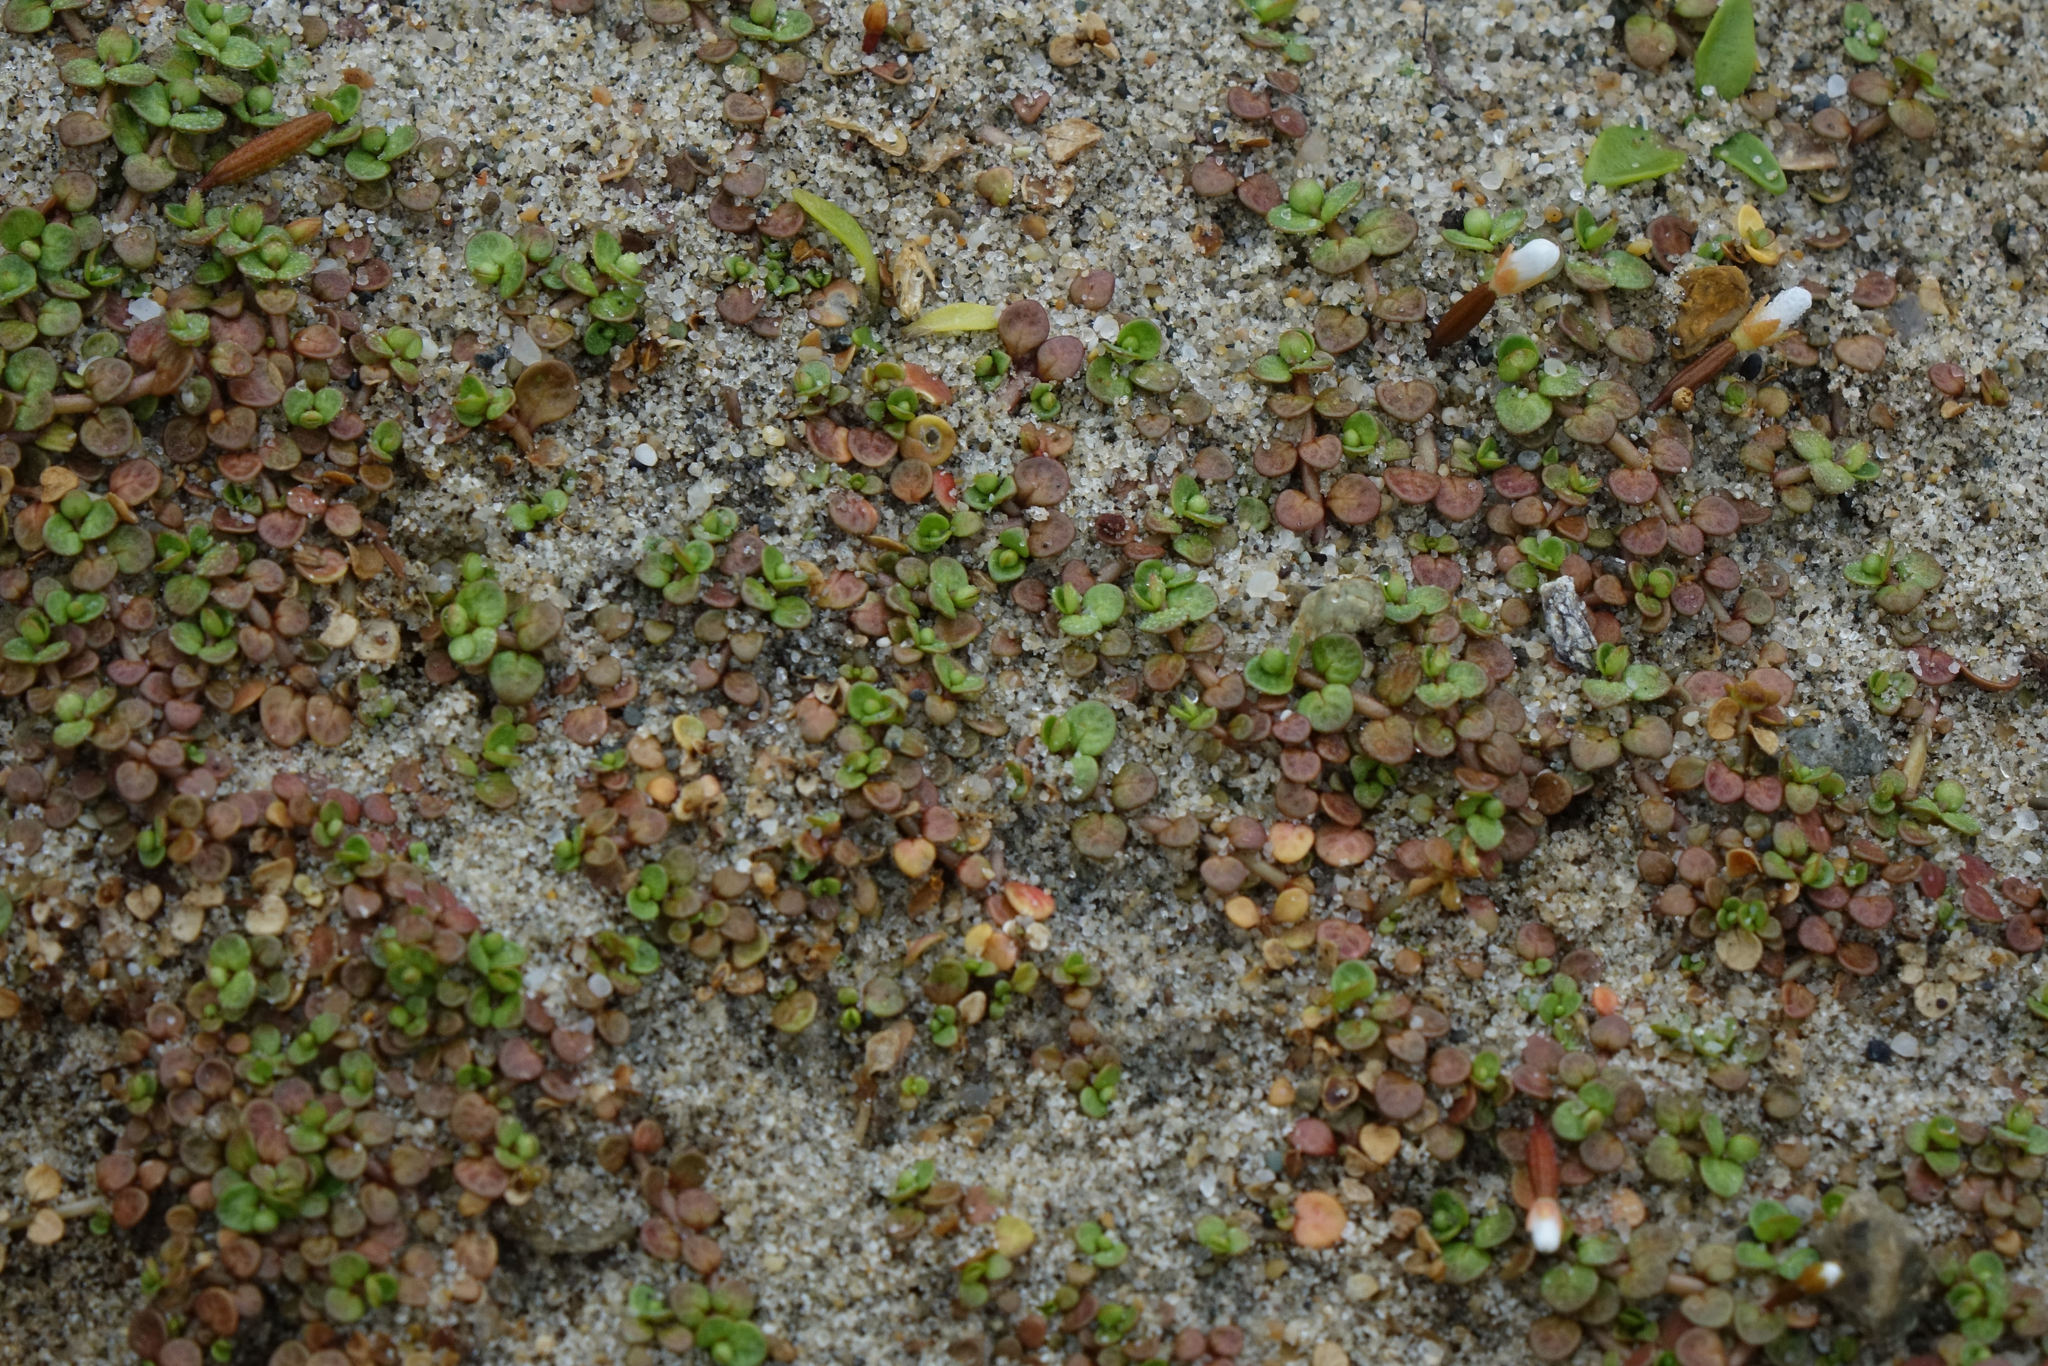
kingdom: Plantae
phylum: Tracheophyta
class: Magnoliopsida
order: Myrtales
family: Onagraceae
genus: Epilobium
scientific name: Epilobium komarovianum
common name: Bronzy willowherb
